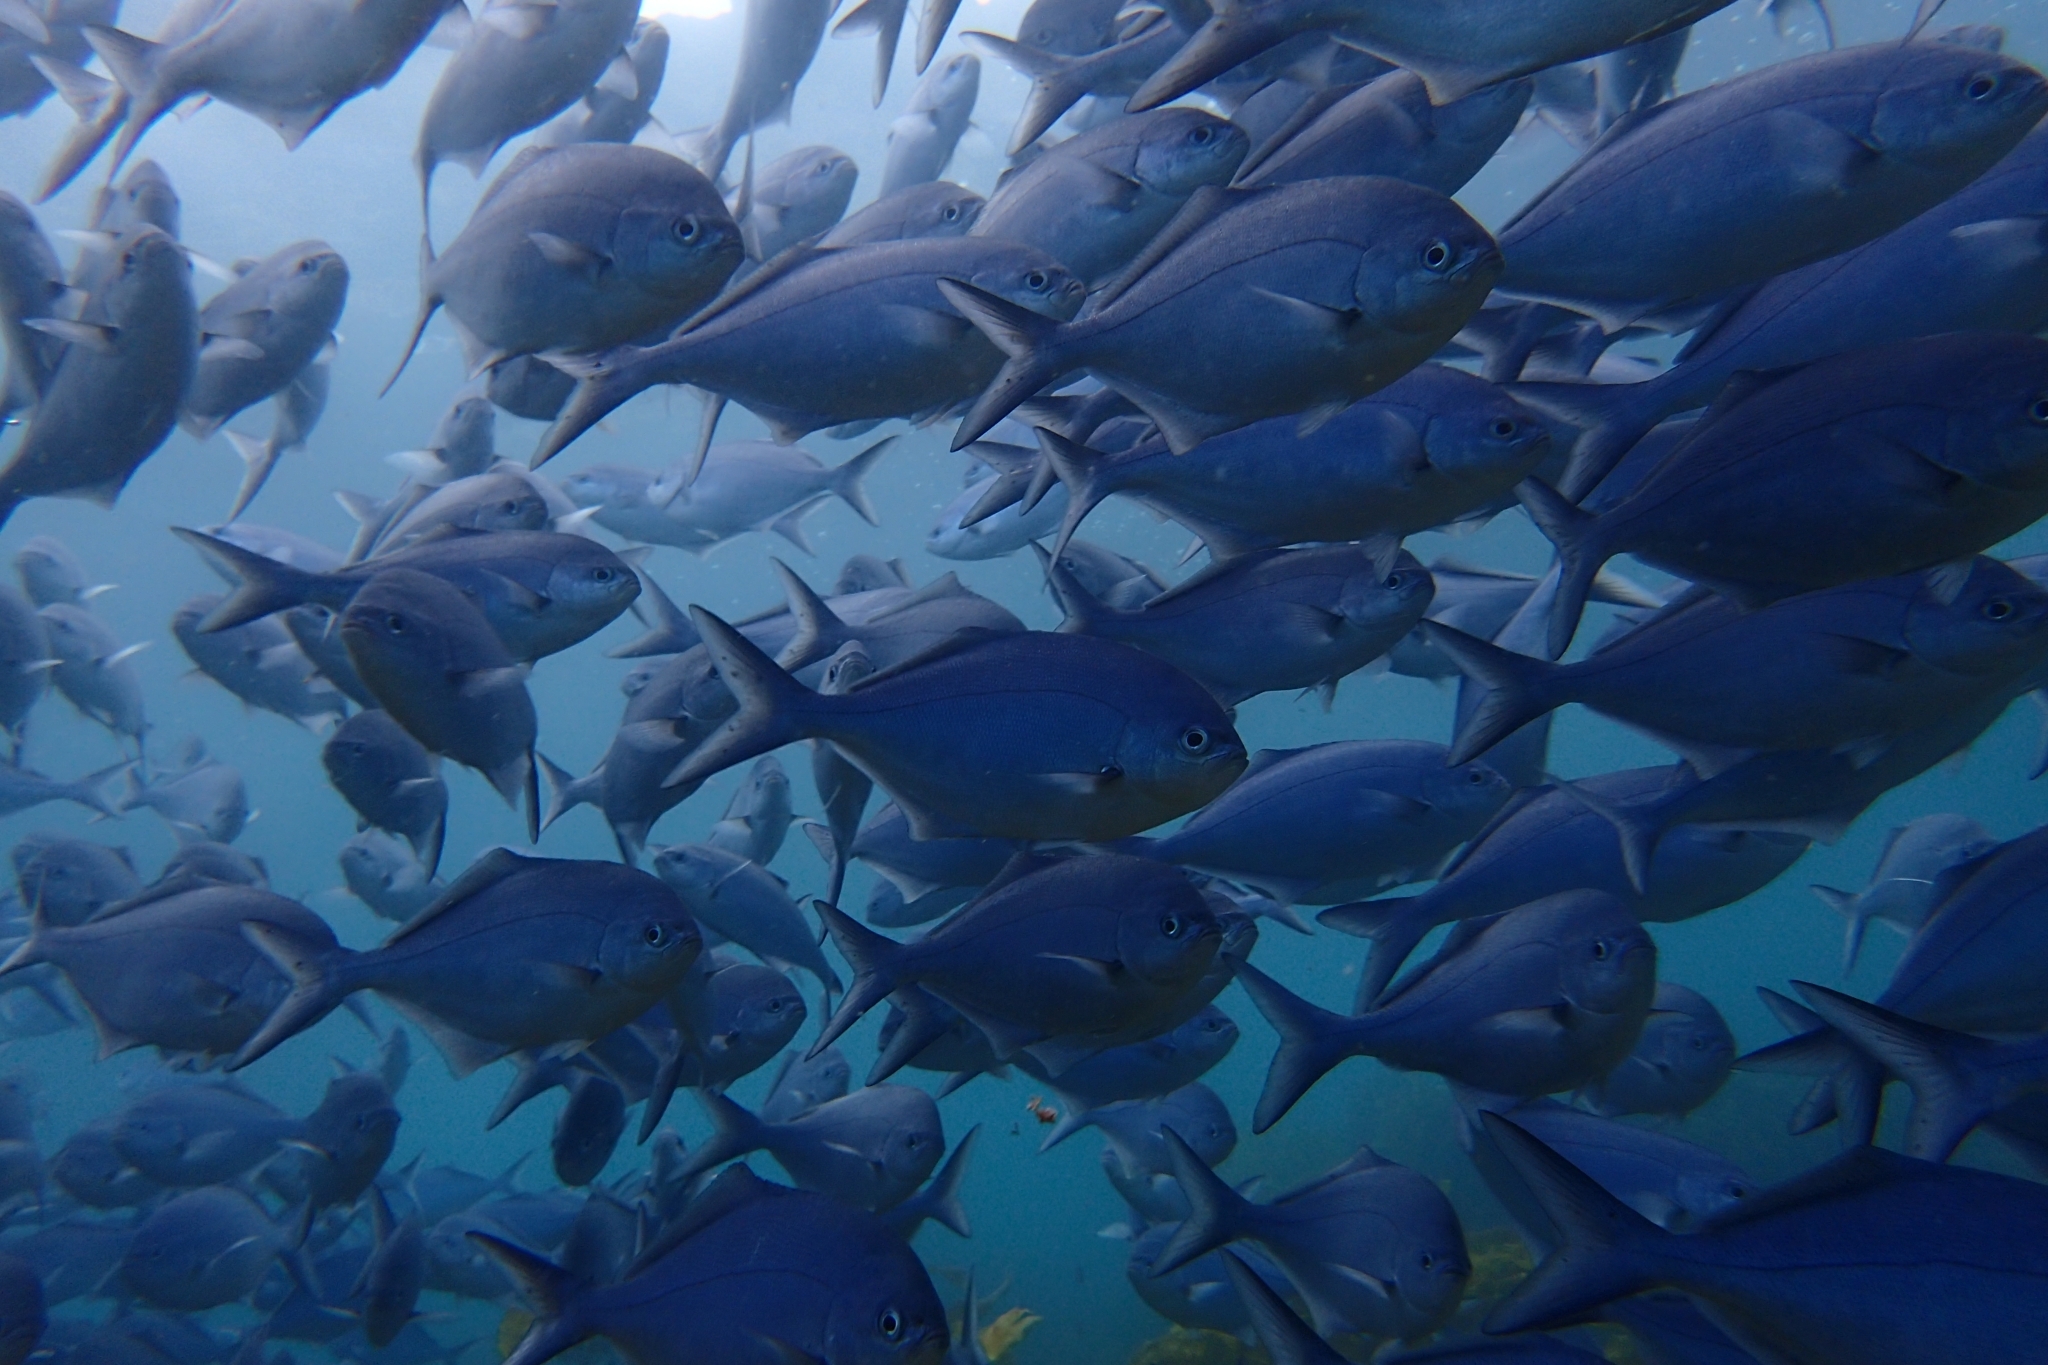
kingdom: Animalia
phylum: Chordata
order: Perciformes
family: Kyphosidae
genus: Scorpis
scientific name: Scorpis violacea
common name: Blue maomao
